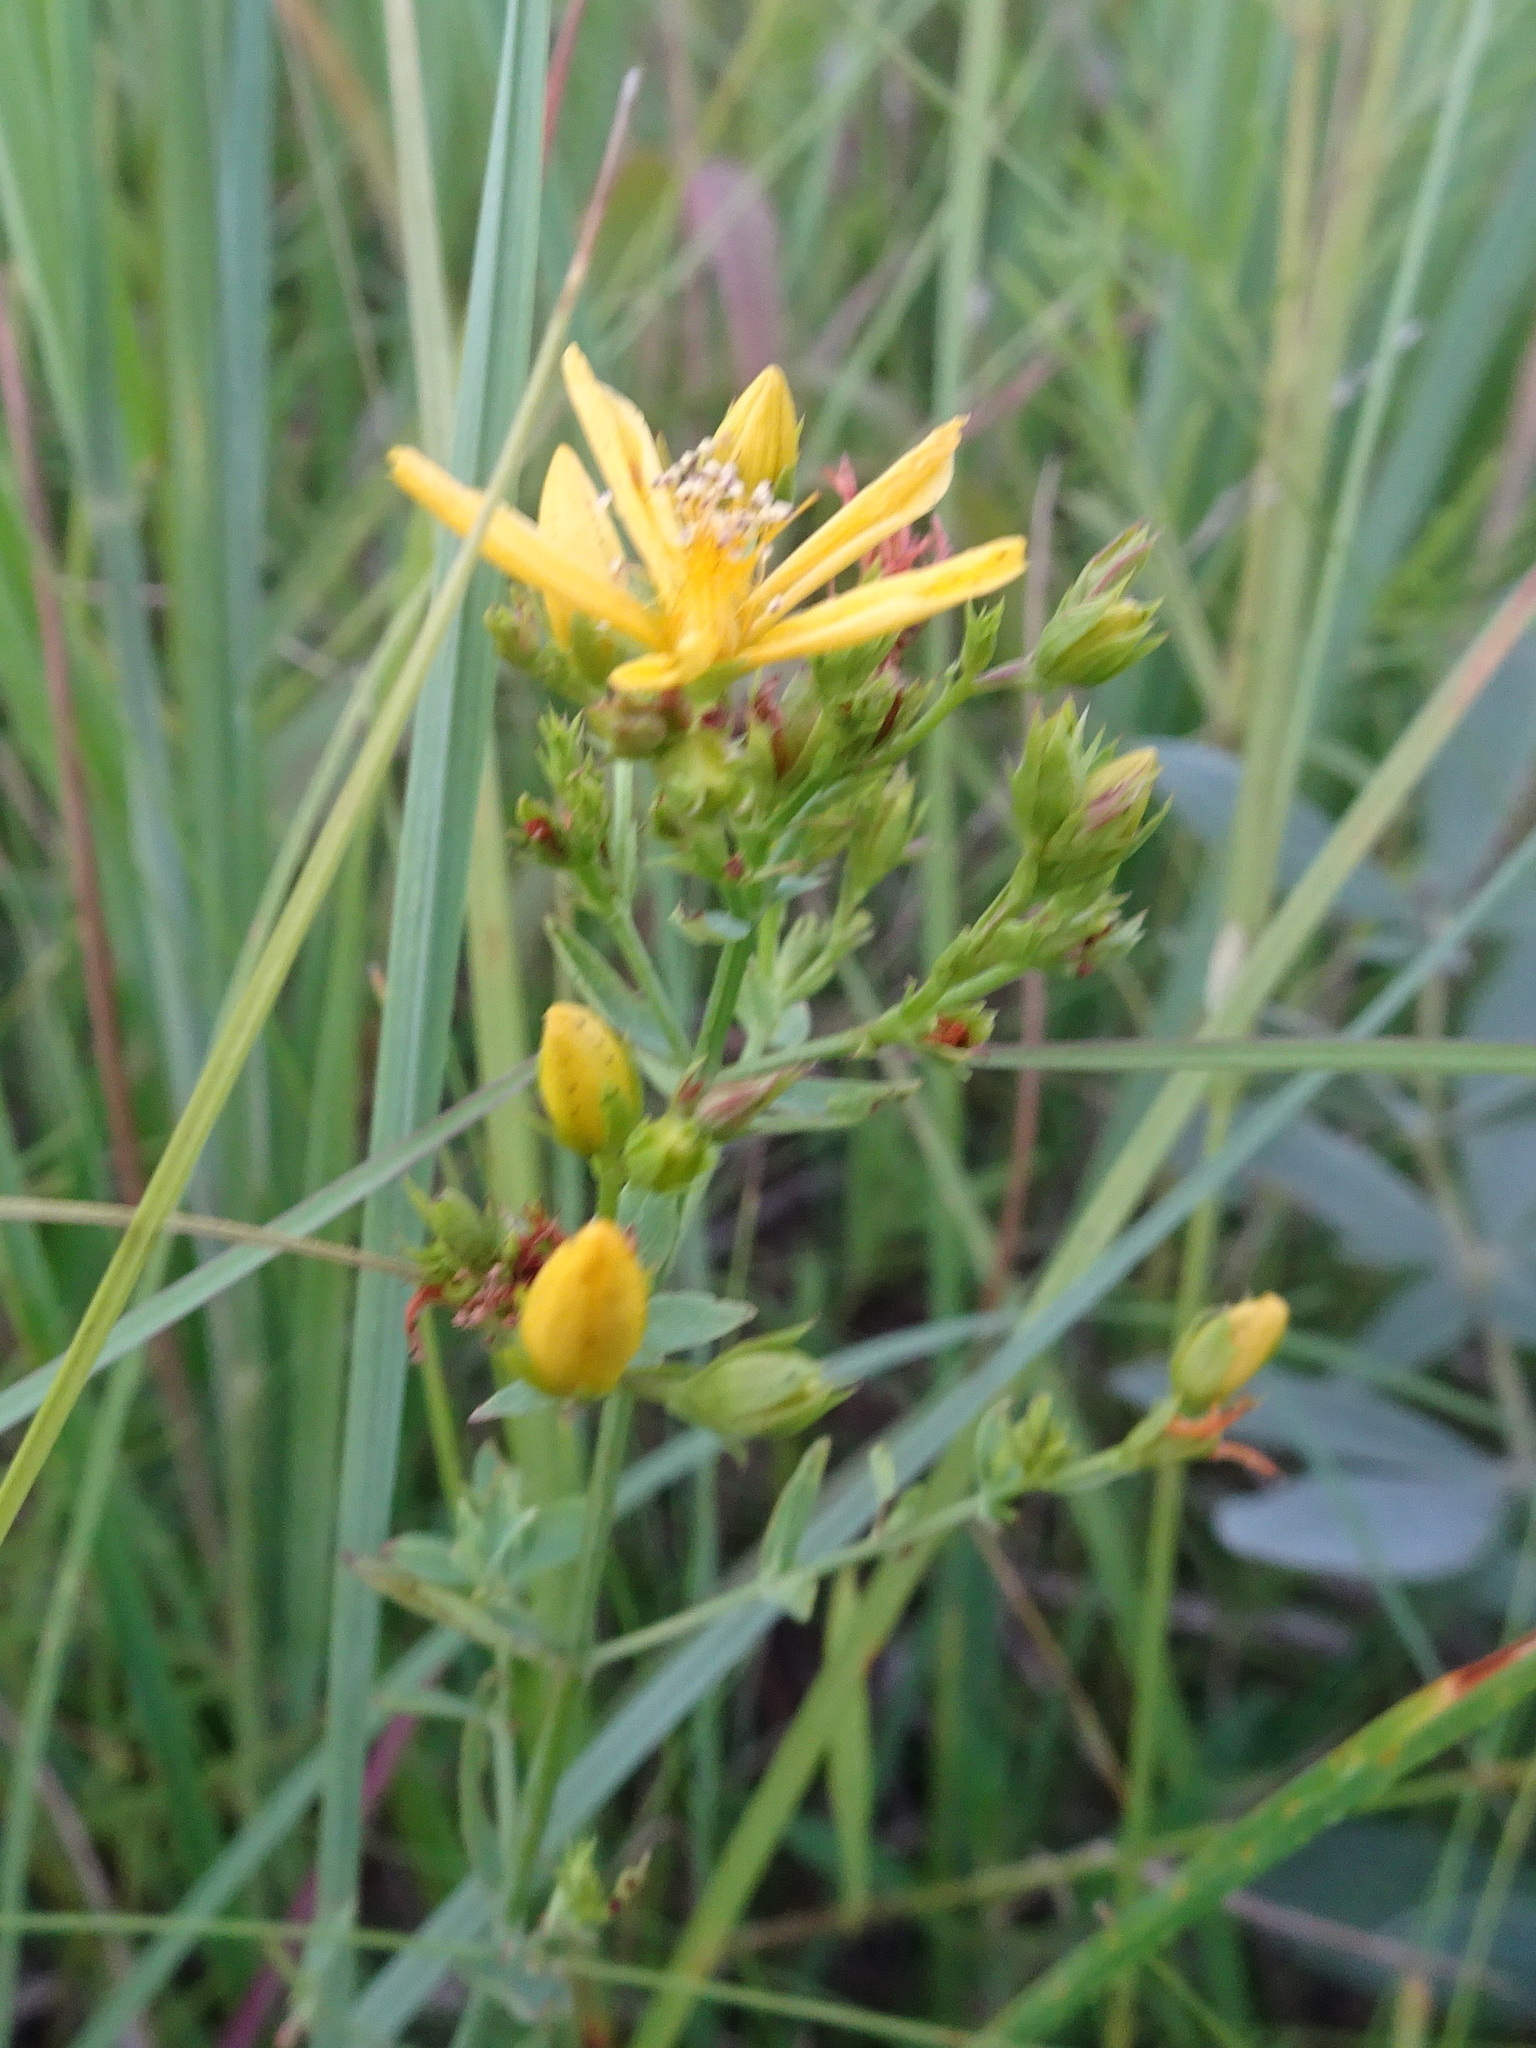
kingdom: Plantae
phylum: Tracheophyta
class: Magnoliopsida
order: Malpighiales
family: Hypericaceae
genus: Hypericum
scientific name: Hypericum perforatum
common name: Common st. johnswort
